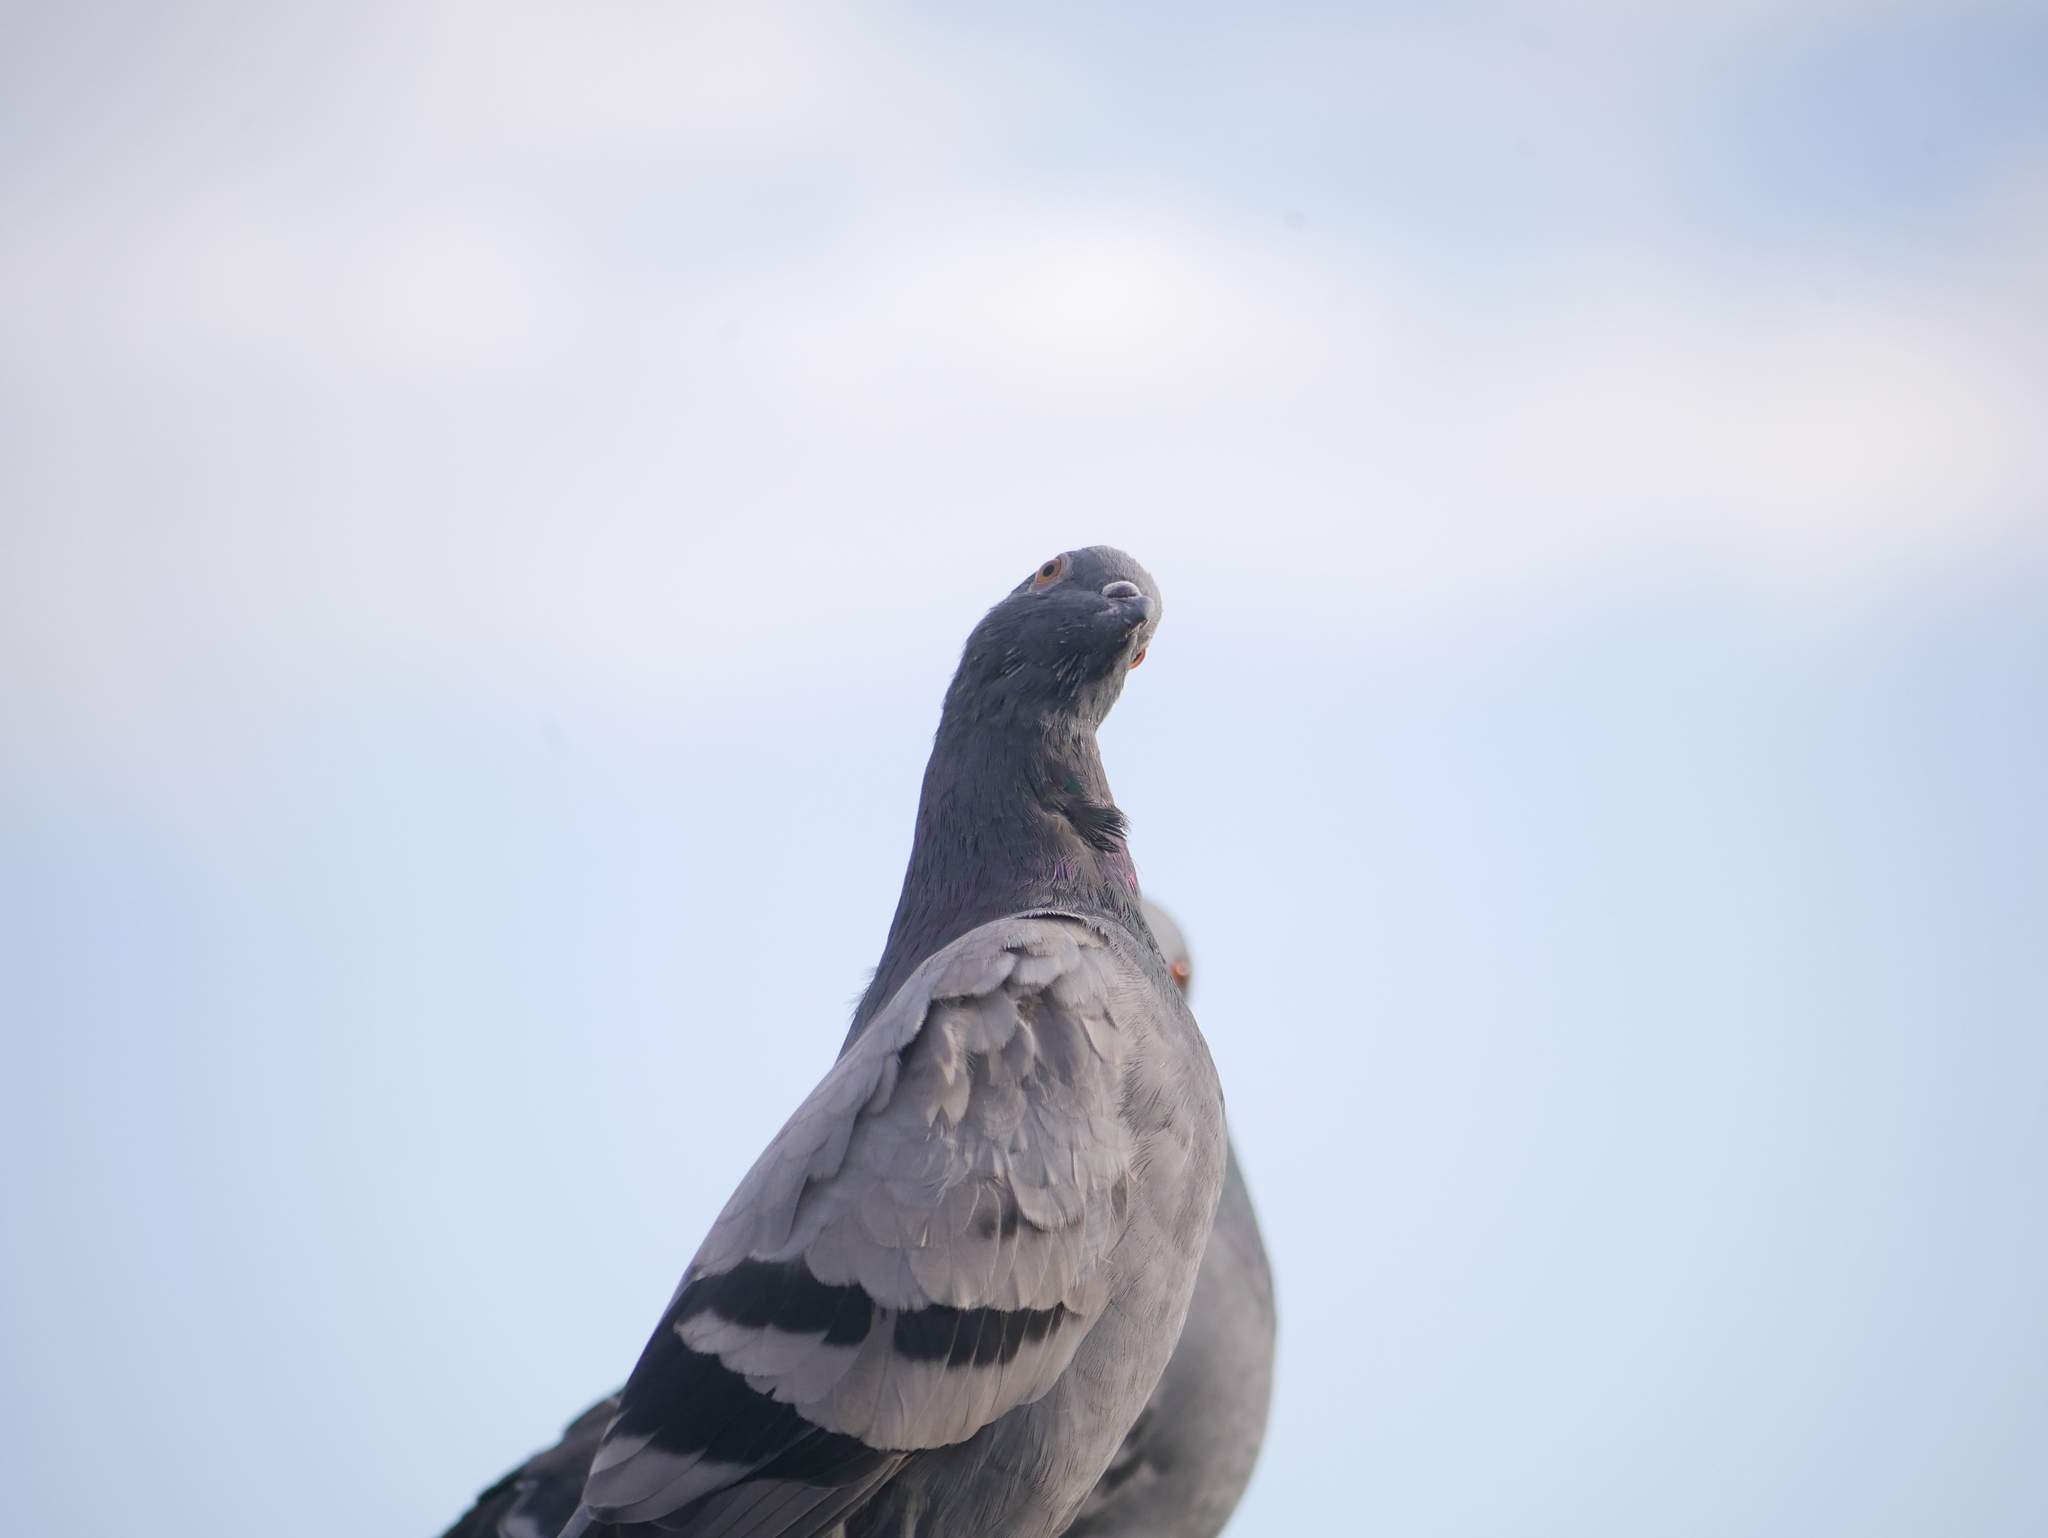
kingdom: Animalia
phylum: Chordata
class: Aves
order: Columbiformes
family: Columbidae
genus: Columba
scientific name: Columba livia
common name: Rock pigeon
